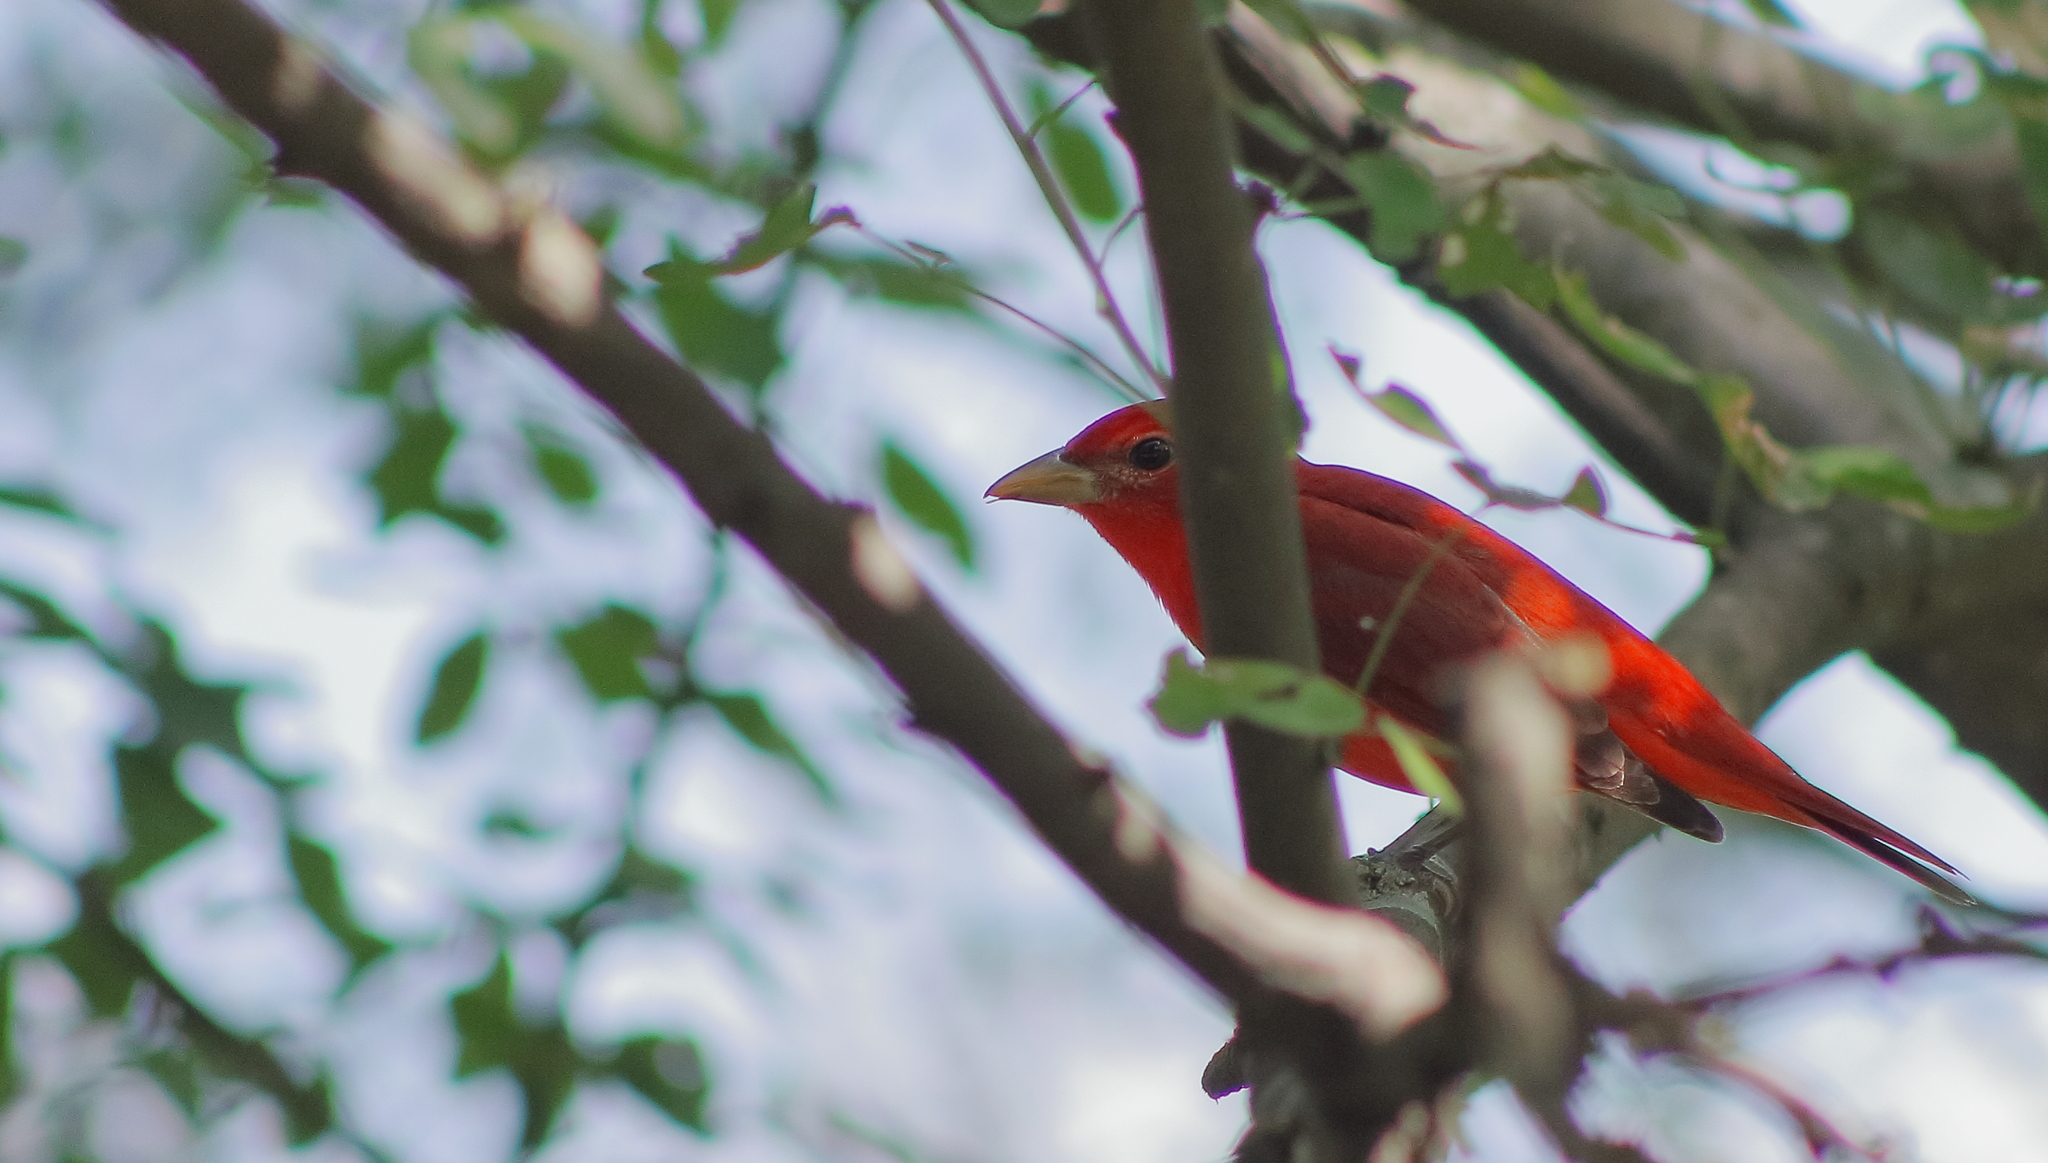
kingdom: Animalia
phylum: Chordata
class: Aves
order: Passeriformes
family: Cardinalidae
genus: Piranga
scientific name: Piranga rubra
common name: Summer tanager
